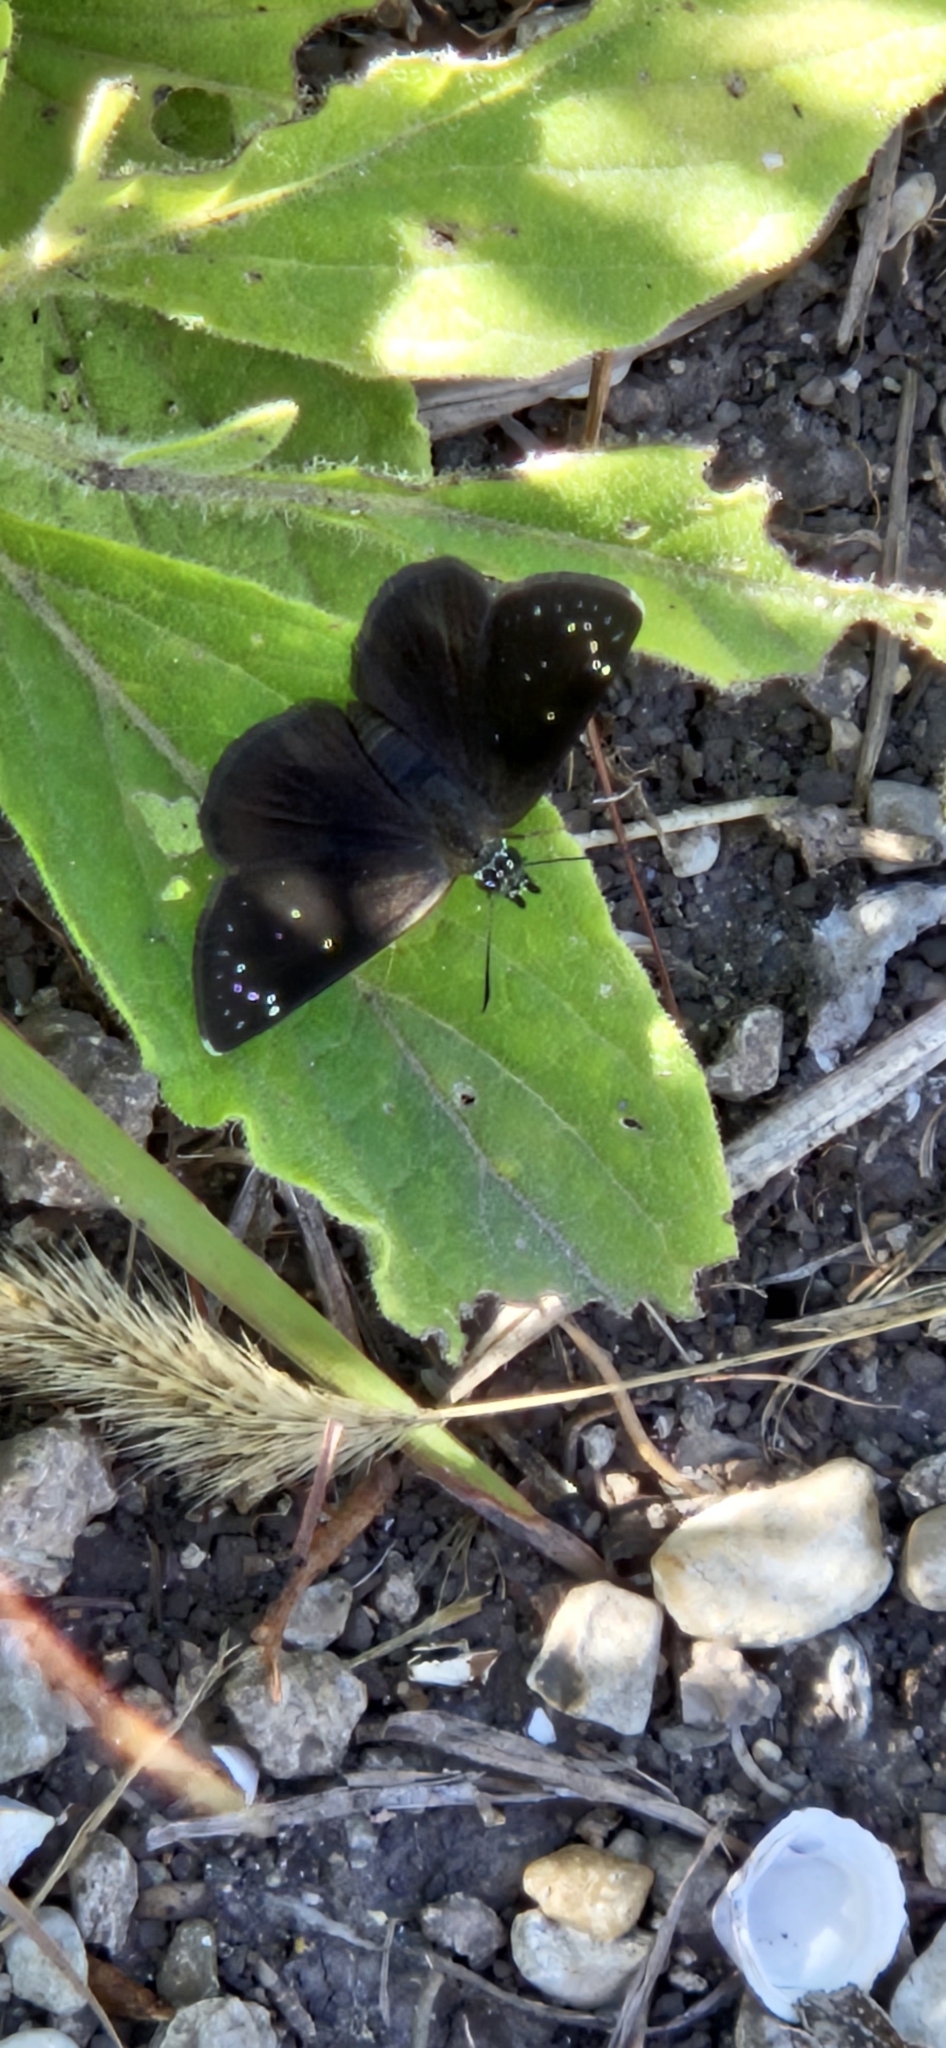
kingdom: Animalia
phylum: Arthropoda
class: Insecta
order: Lepidoptera
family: Hesperiidae
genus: Pholisora
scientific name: Pholisora catullus
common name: Common sootywing
